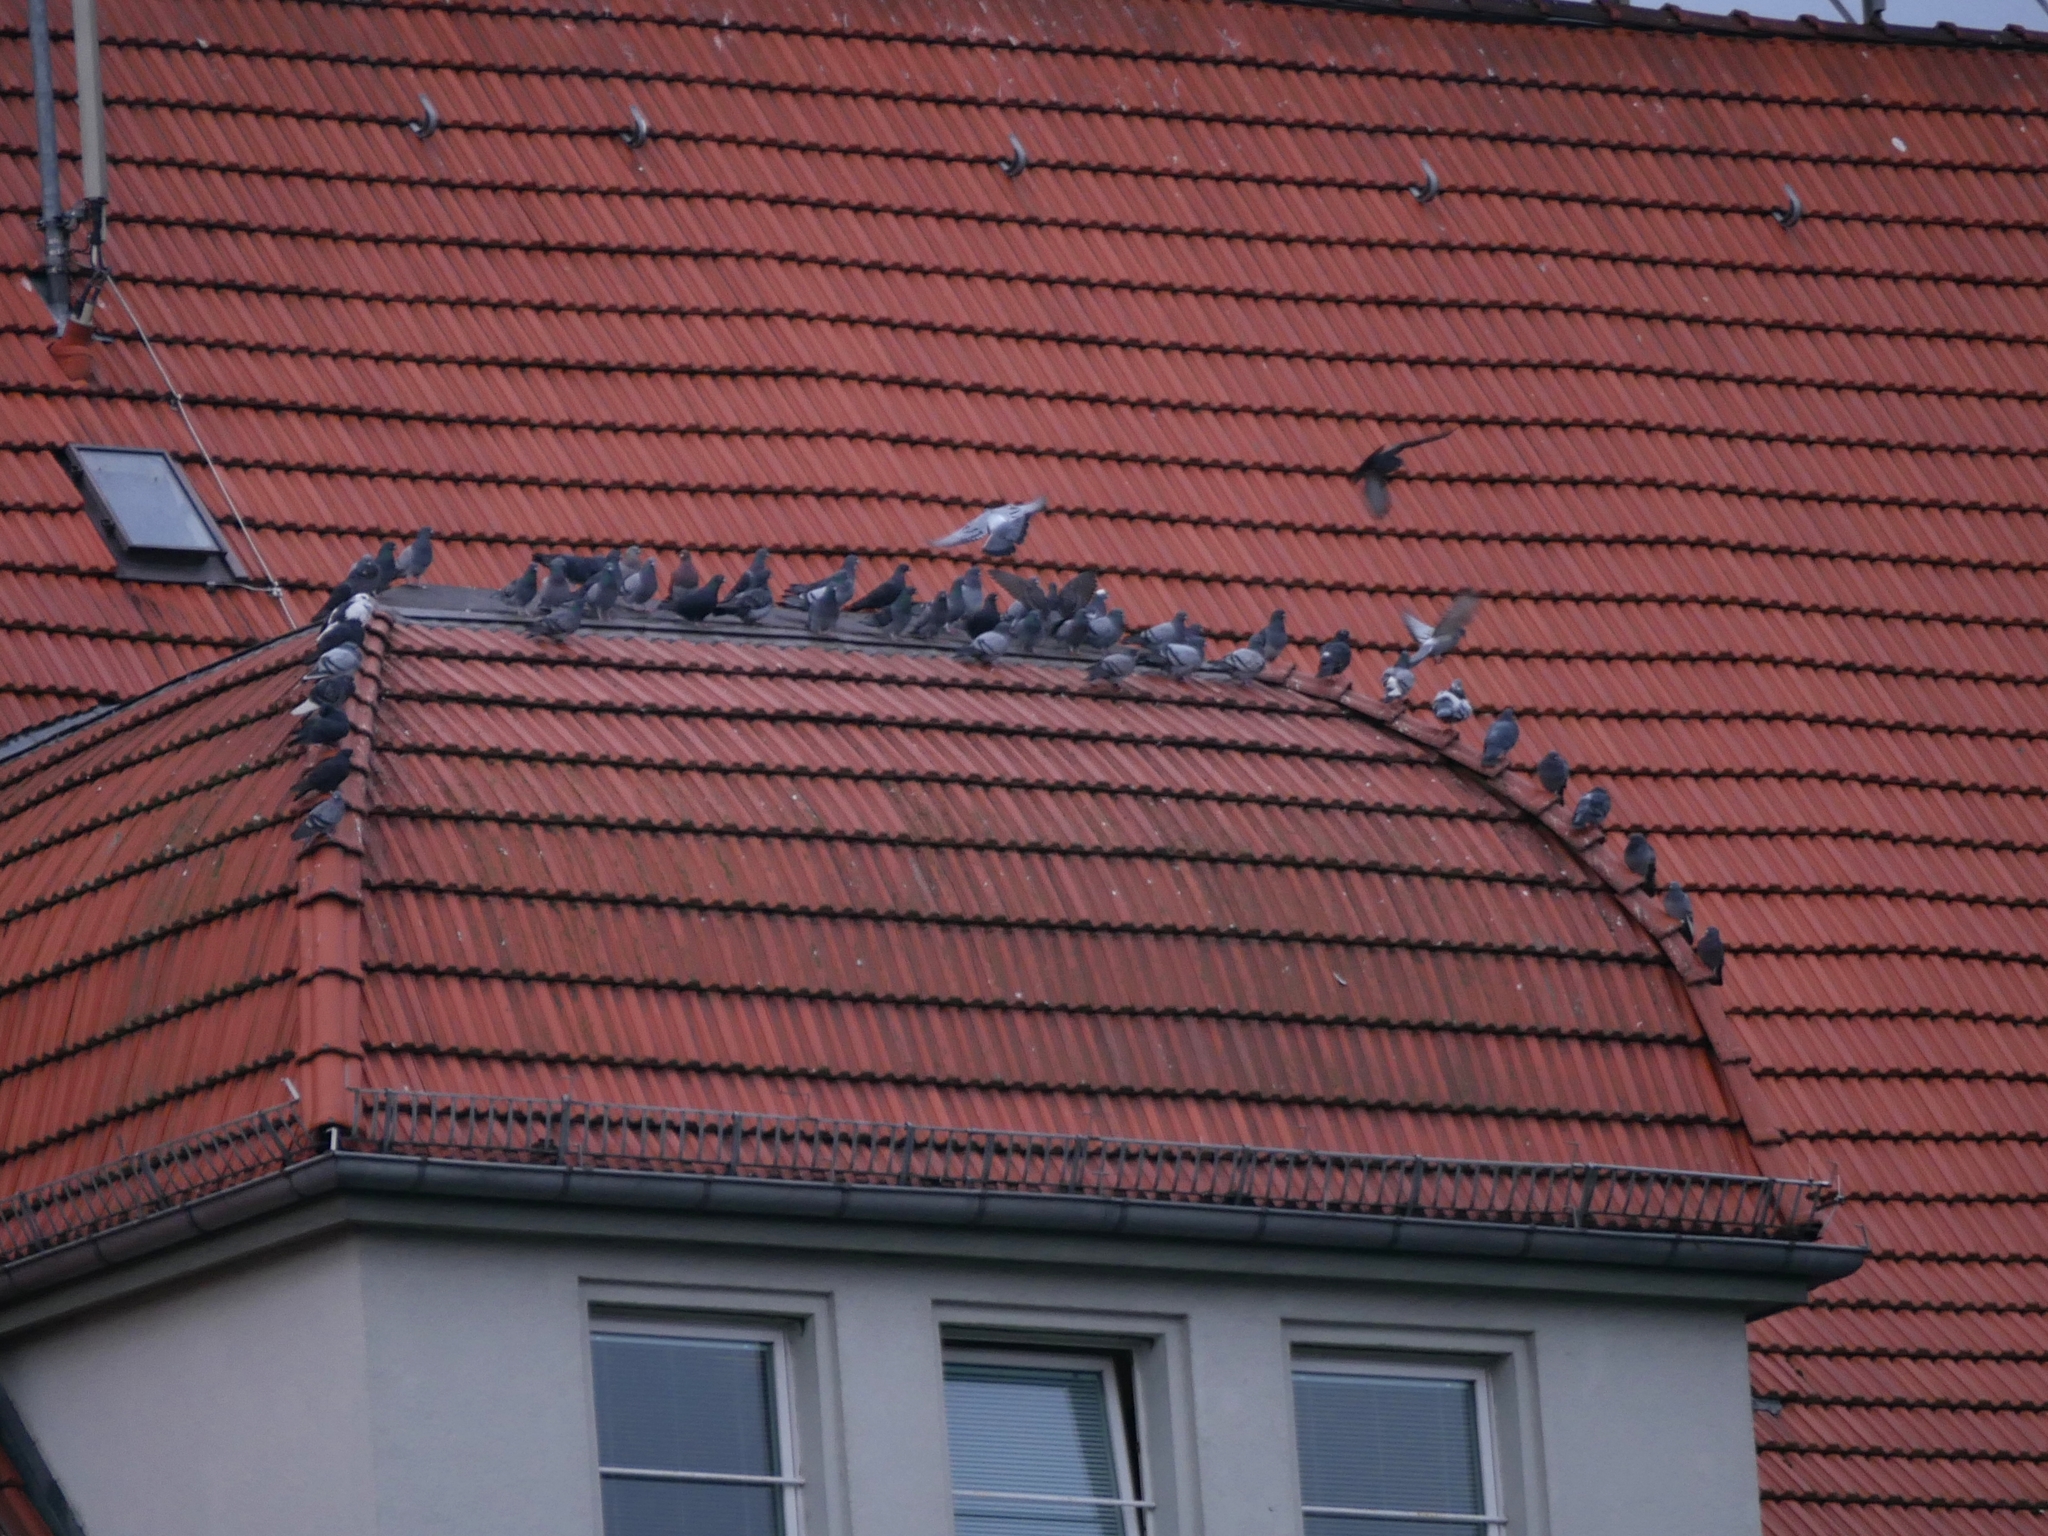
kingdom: Animalia
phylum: Chordata
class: Aves
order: Columbiformes
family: Columbidae
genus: Columba
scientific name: Columba livia
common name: Rock pigeon
